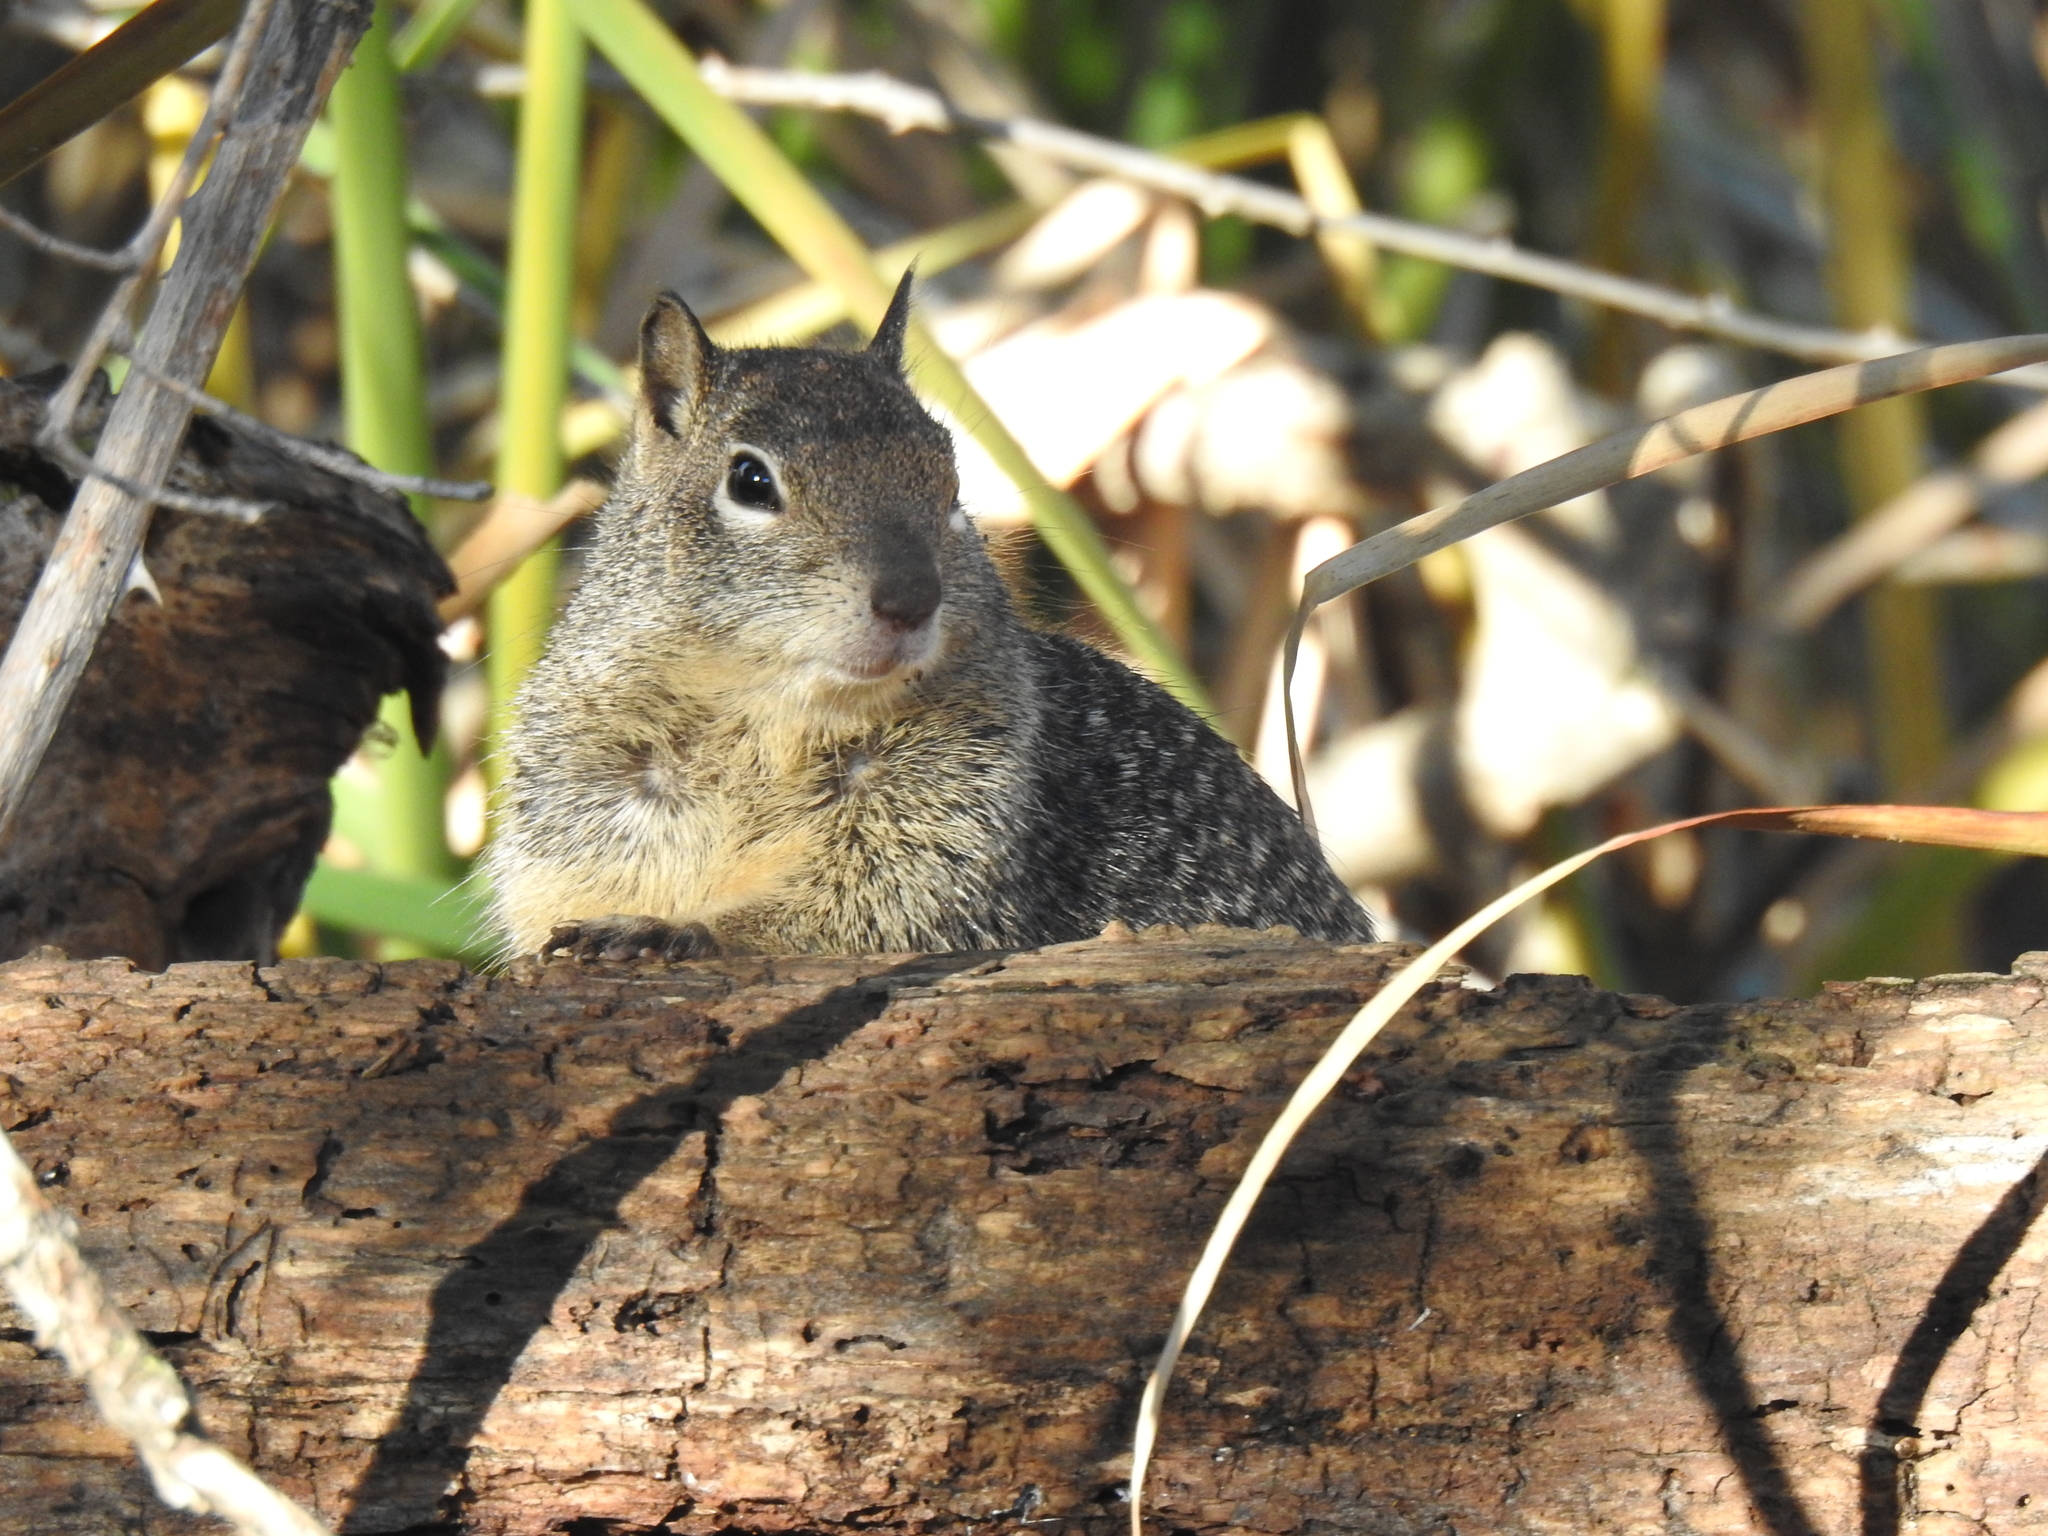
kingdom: Animalia
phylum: Chordata
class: Mammalia
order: Rodentia
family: Sciuridae
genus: Otospermophilus
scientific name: Otospermophilus beecheyi
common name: California ground squirrel
